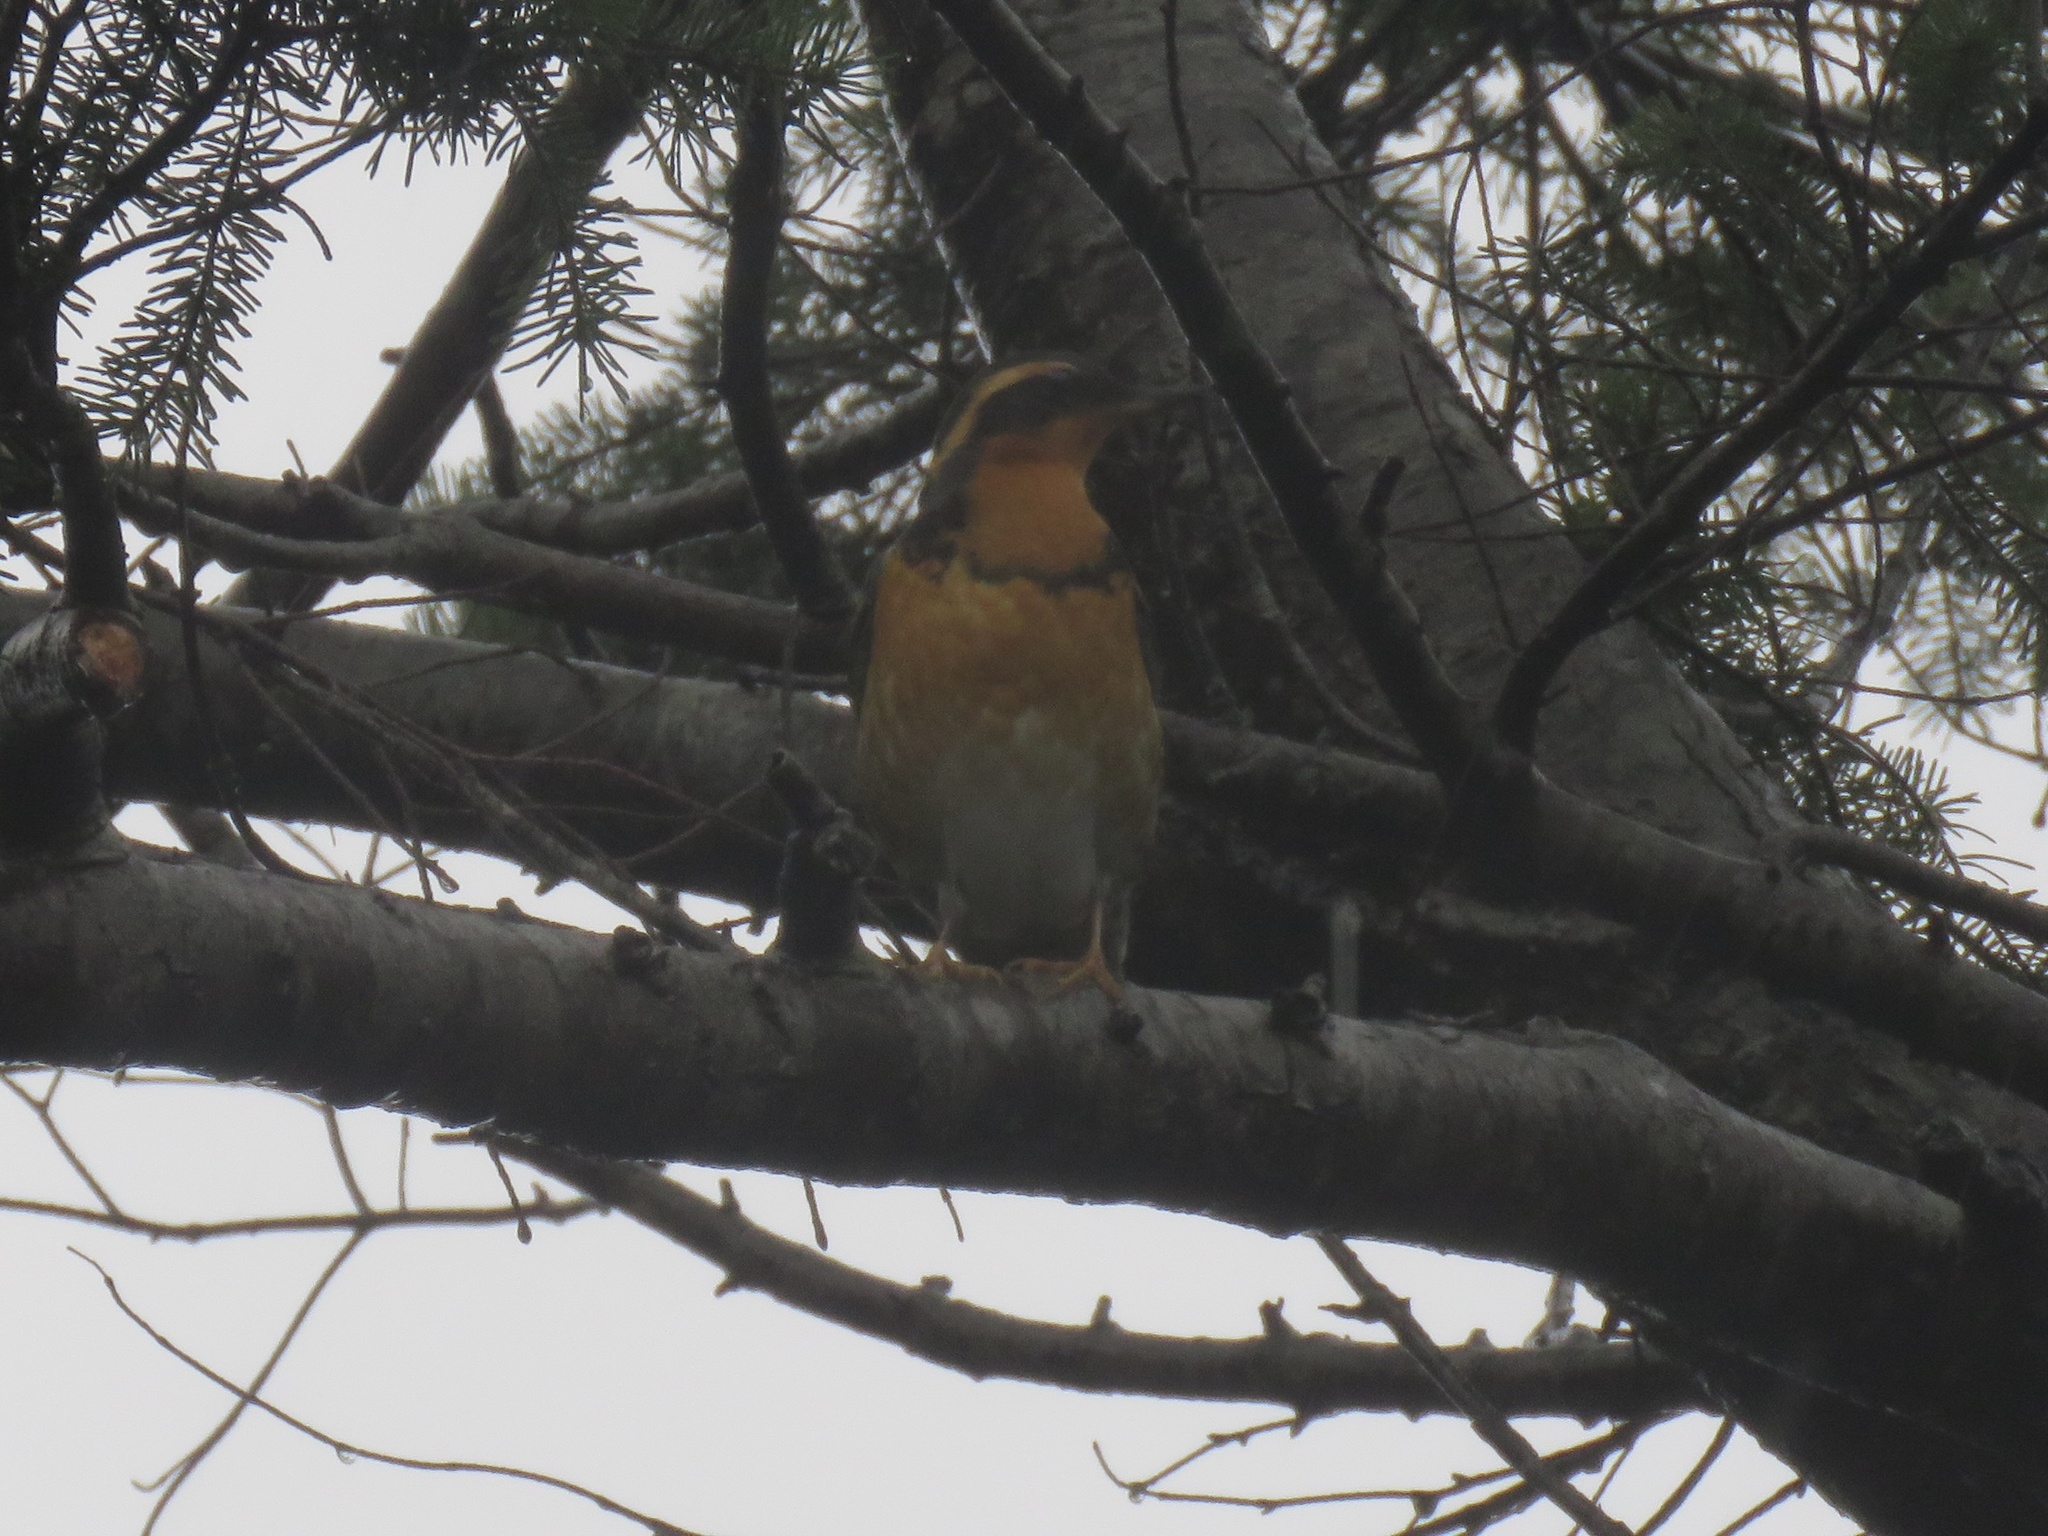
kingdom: Animalia
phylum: Chordata
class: Aves
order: Passeriformes
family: Turdidae
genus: Ixoreus
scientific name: Ixoreus naevius
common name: Varied thrush
